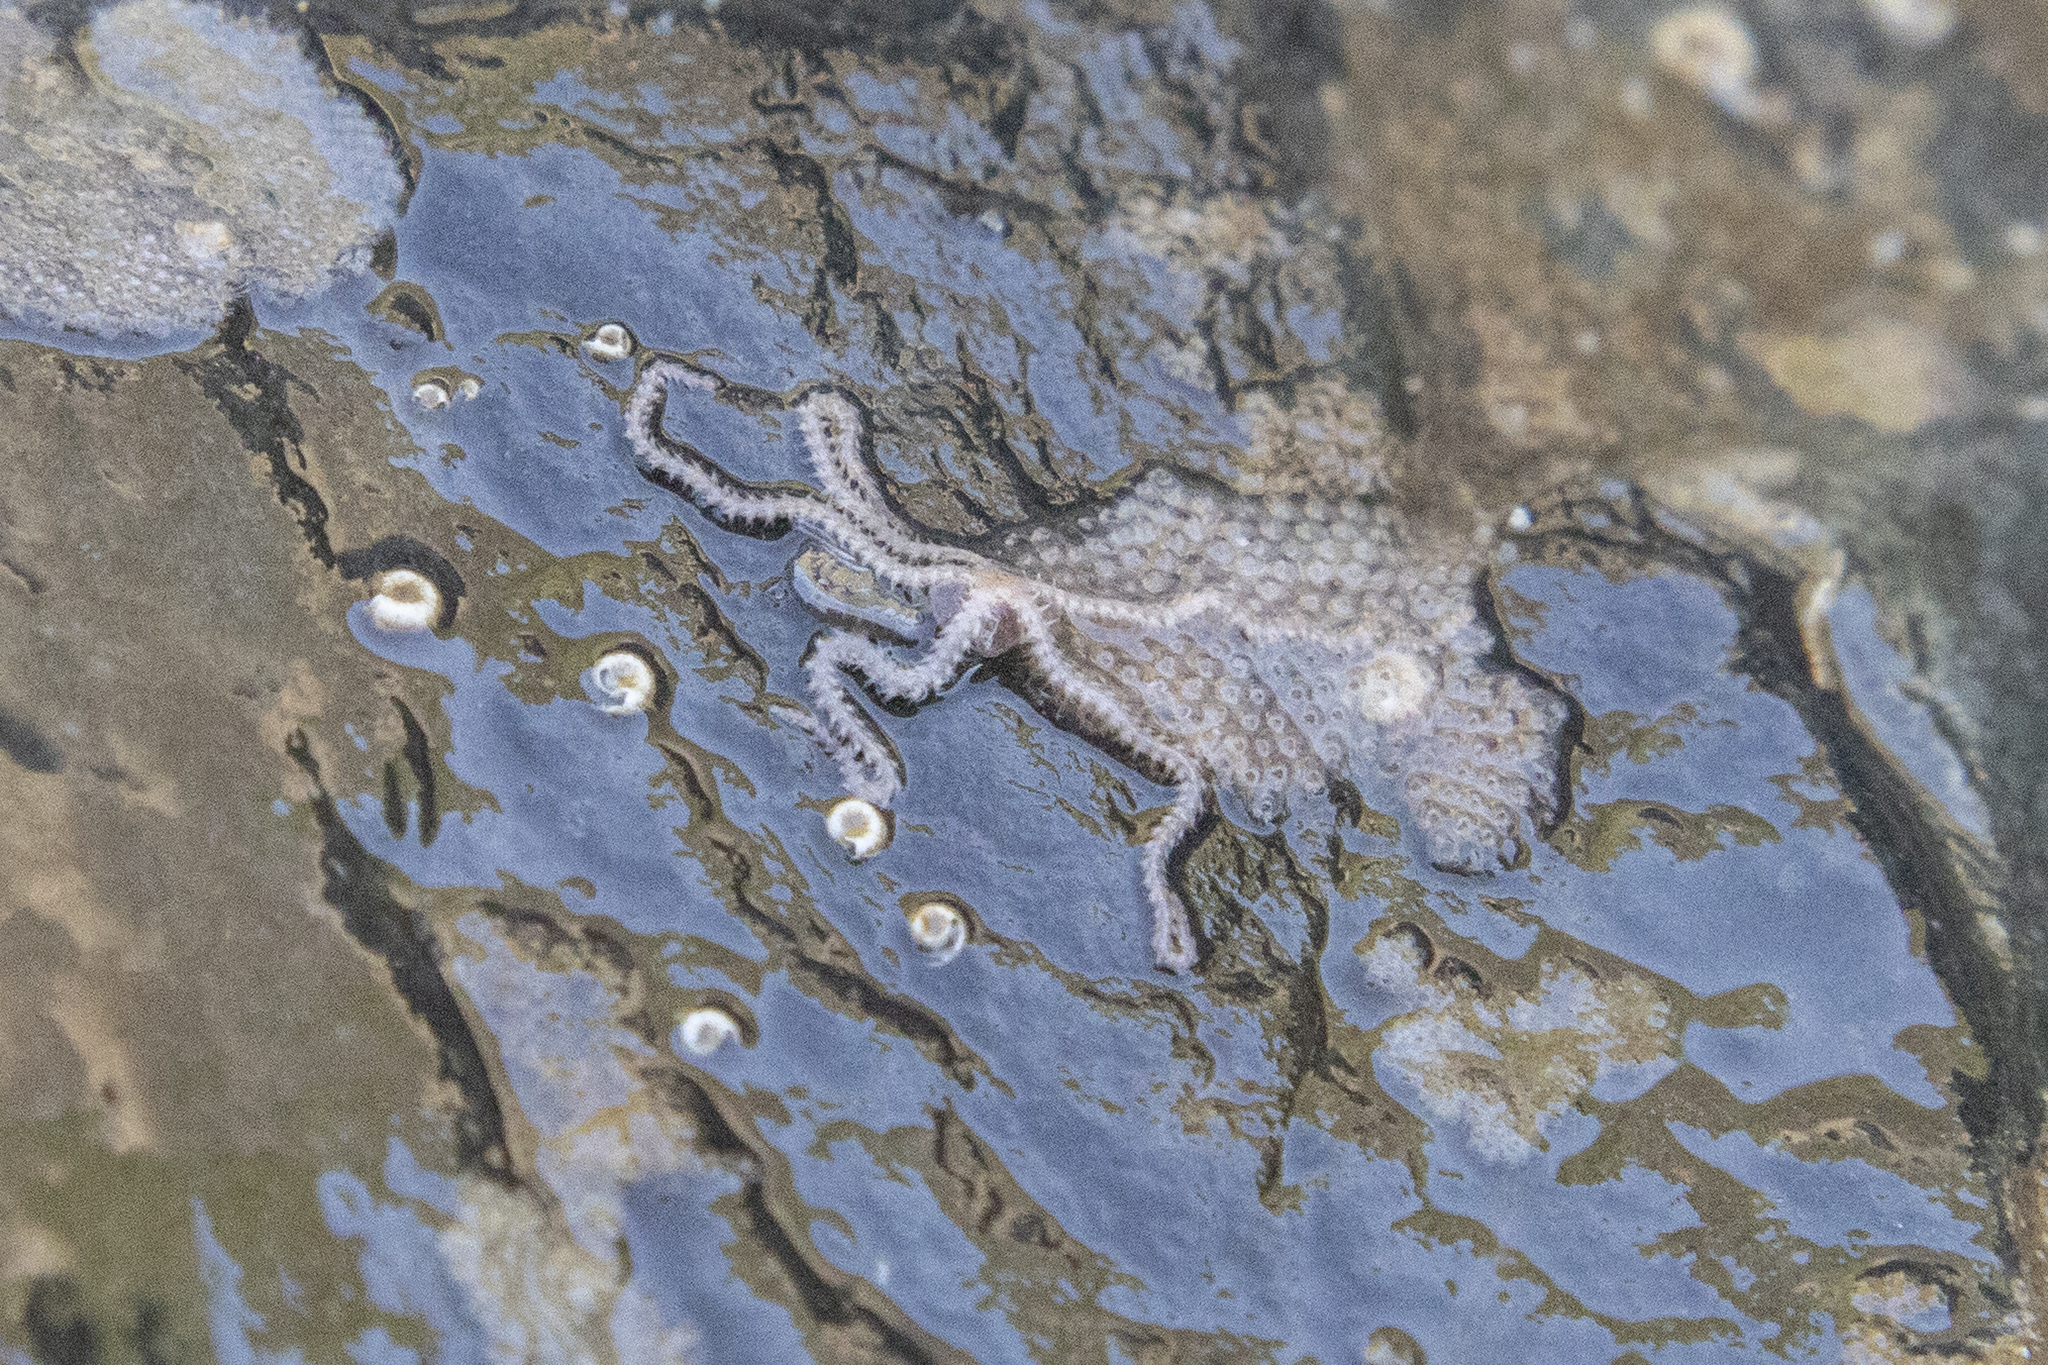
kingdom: Animalia
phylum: Echinodermata
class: Ophiuroidea
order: Amphilepidida
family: Amphiuridae
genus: Amphipholis
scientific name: Amphipholis squamata
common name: Brooding snake star
